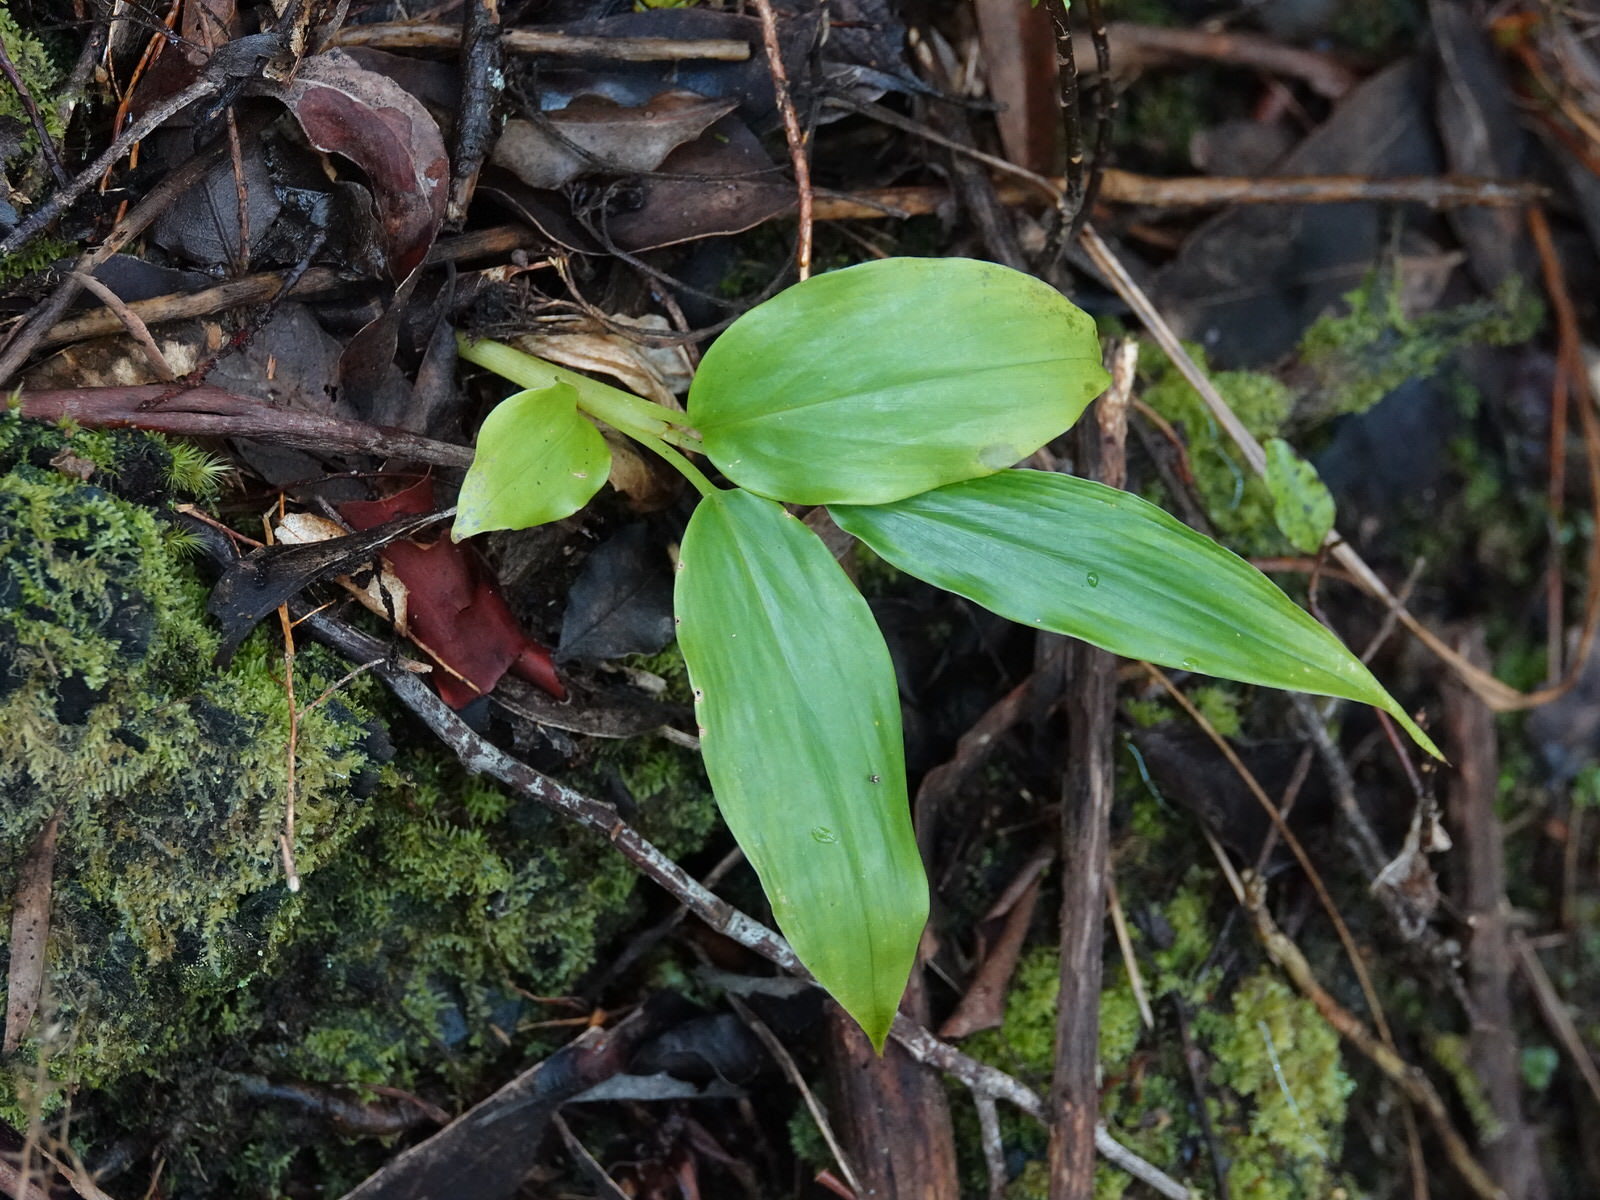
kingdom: Plantae
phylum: Tracheophyta
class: Liliopsida
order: Zingiberales
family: Zingiberaceae
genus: Hedychium
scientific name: Hedychium gardnerianum
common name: Himalayan ginger
